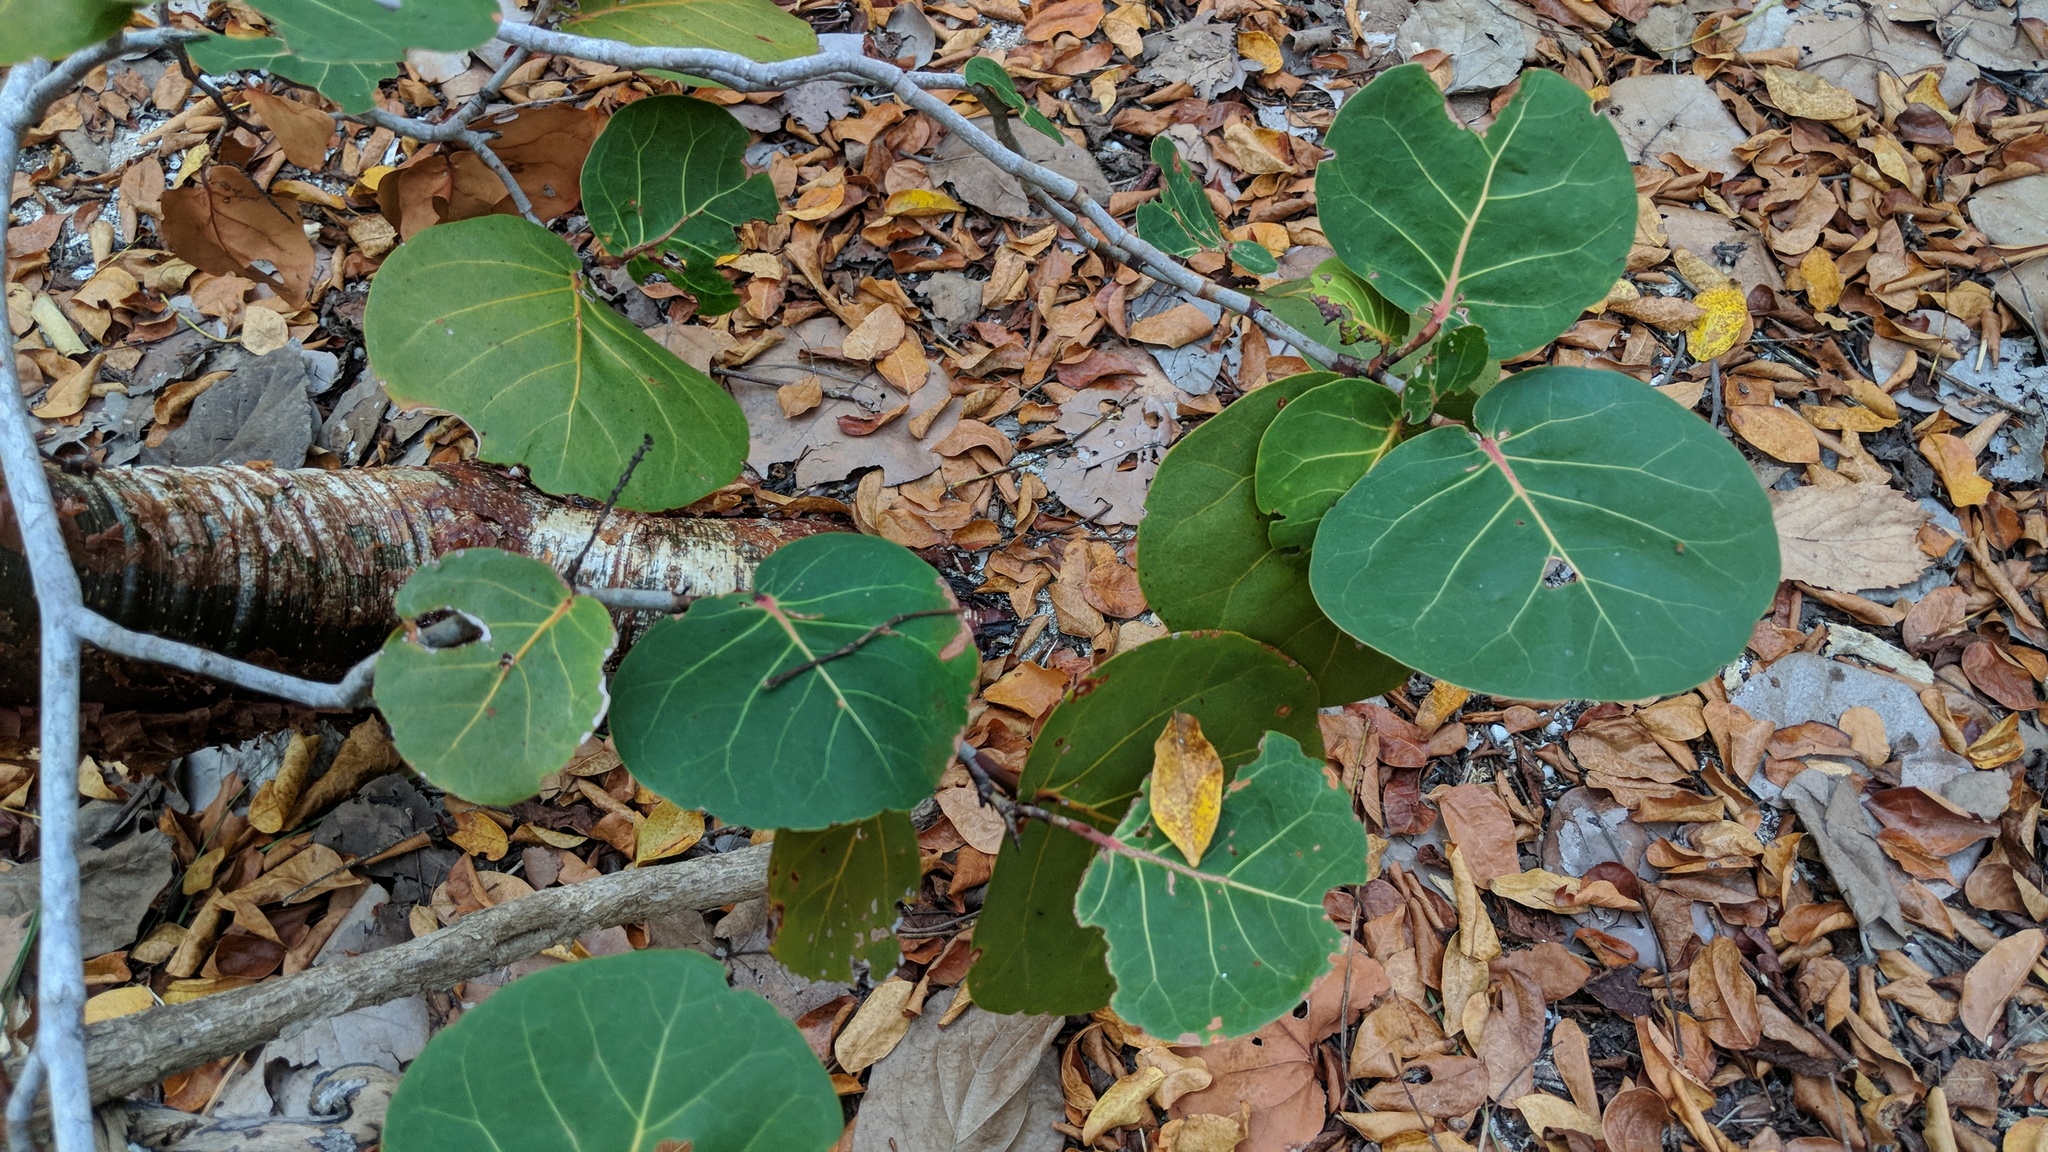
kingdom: Plantae
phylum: Tracheophyta
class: Magnoliopsida
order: Caryophyllales
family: Polygonaceae
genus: Coccoloba
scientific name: Coccoloba uvifera
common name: Seagrape
